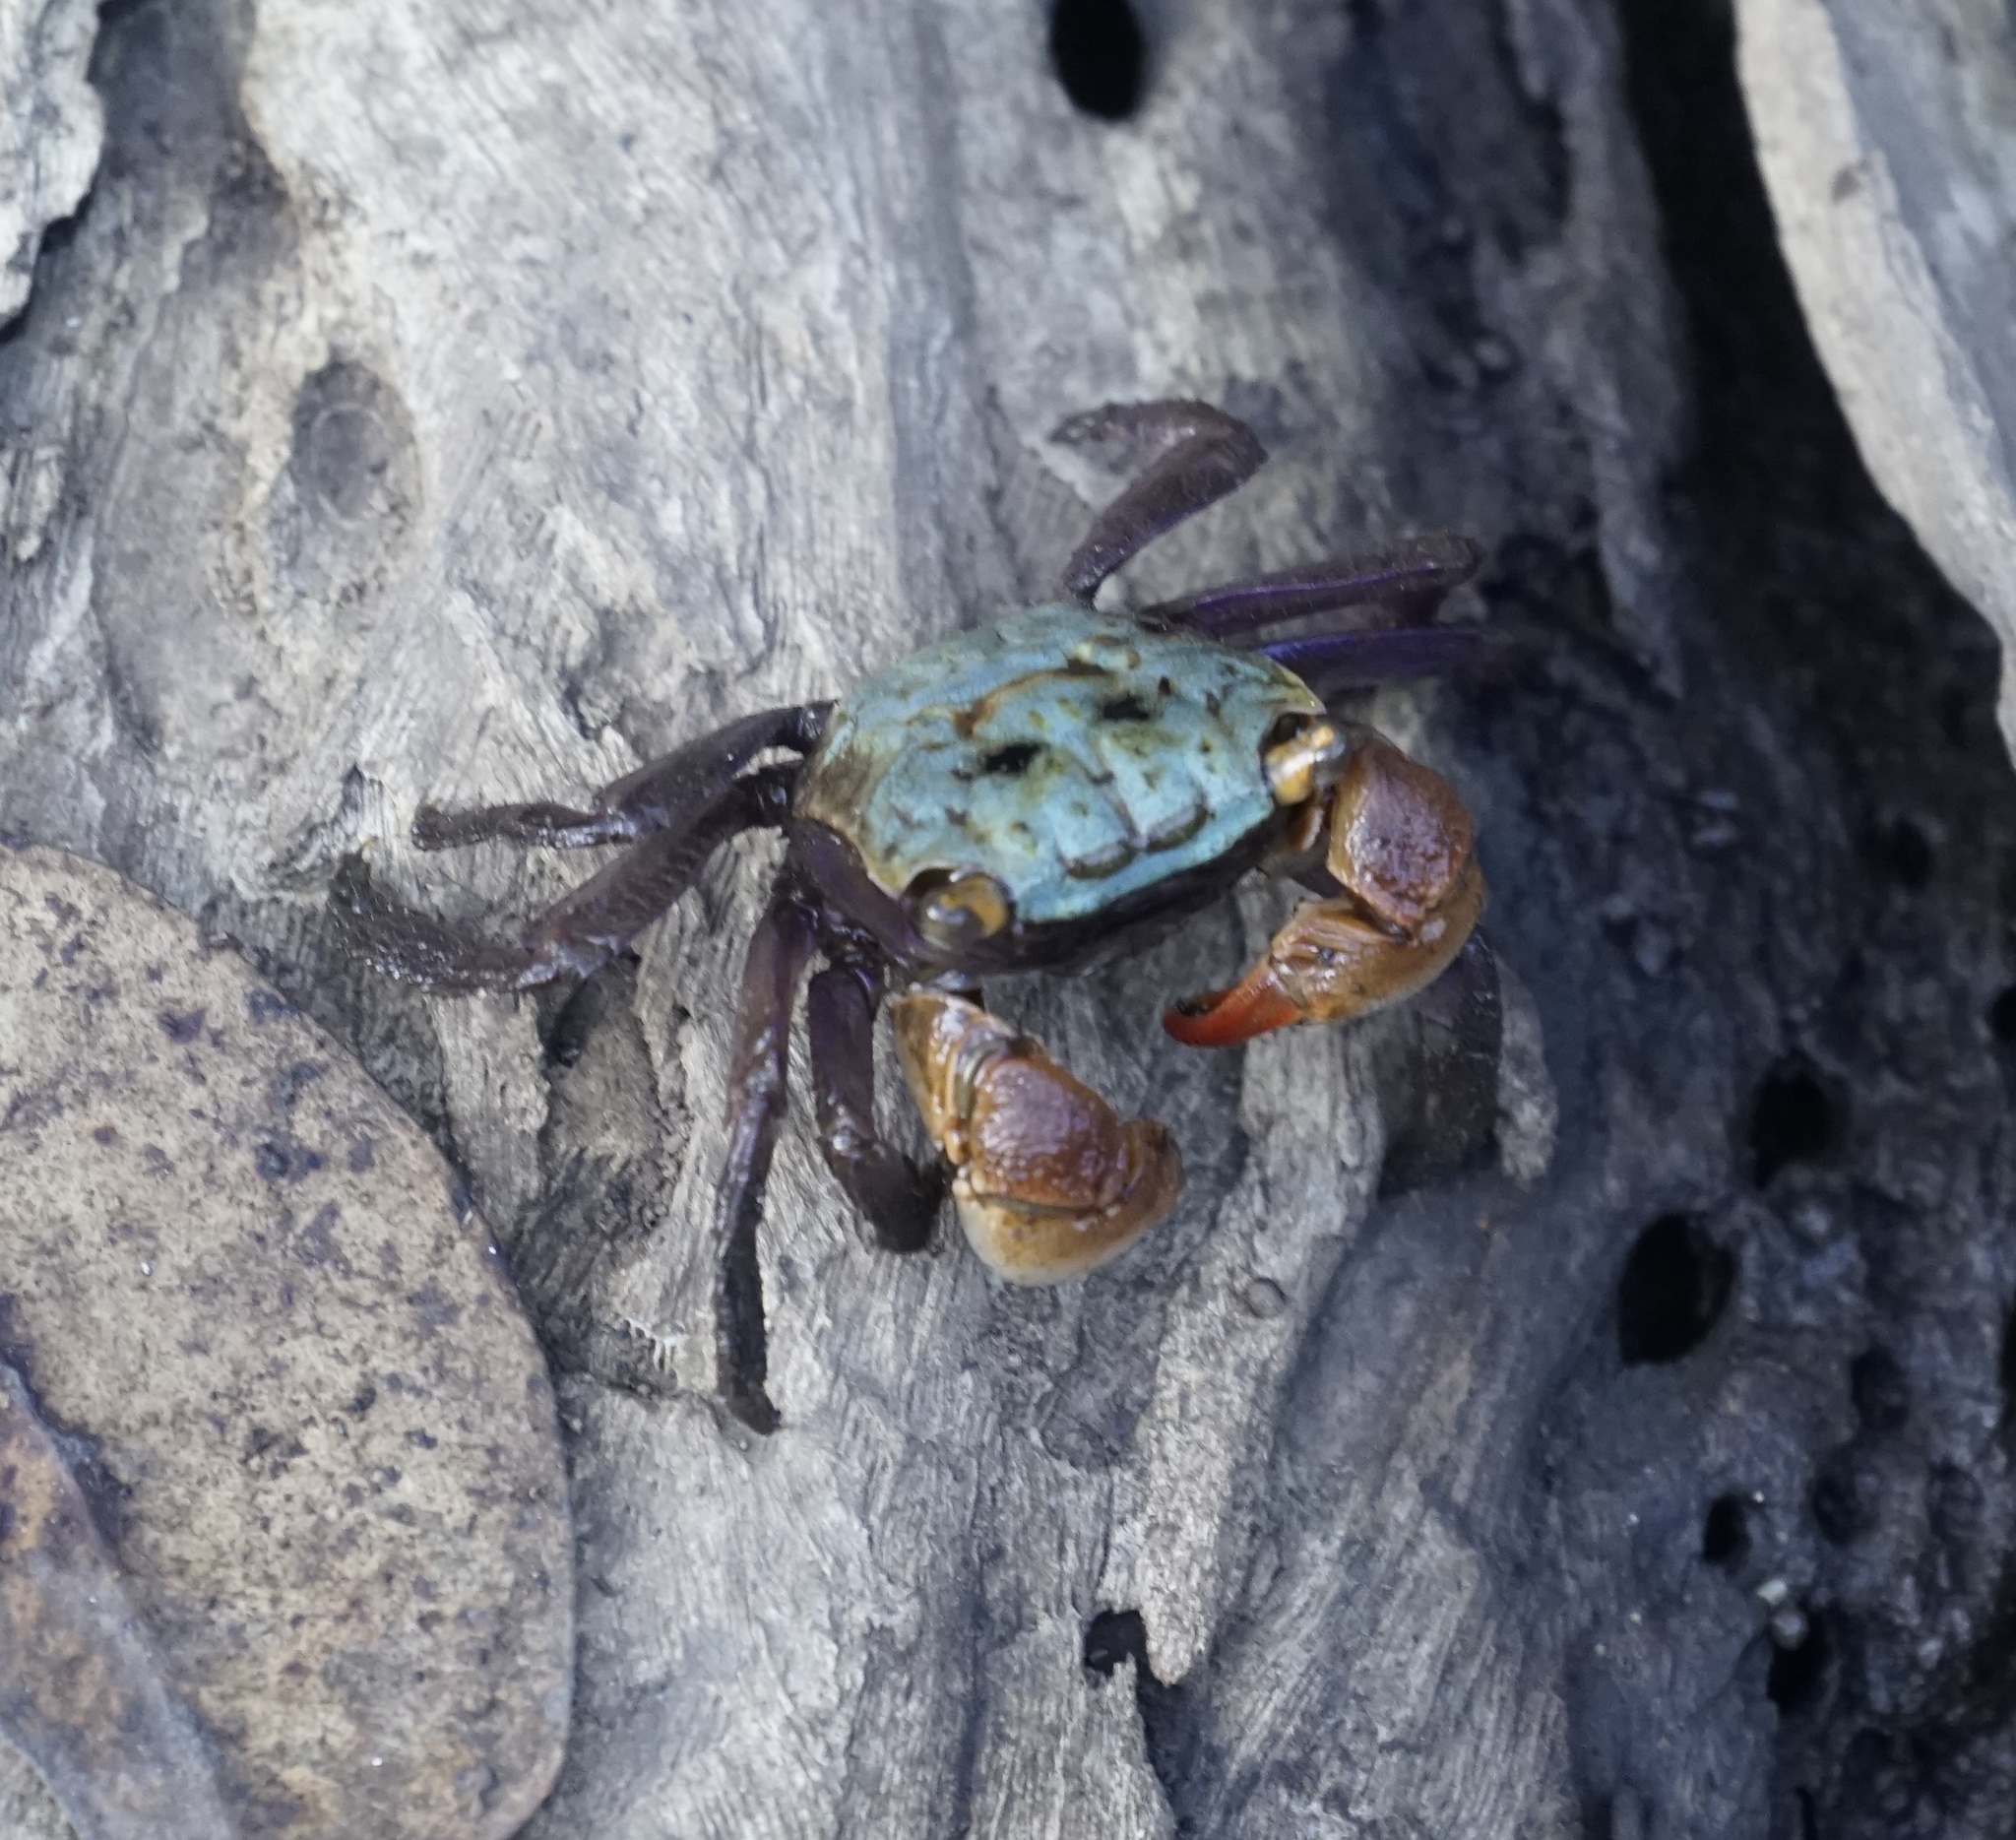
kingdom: Animalia
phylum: Arthropoda
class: Malacostraca
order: Decapoda
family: Sesarmidae
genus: Parasesarma
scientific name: Parasesarma erythodactylum
